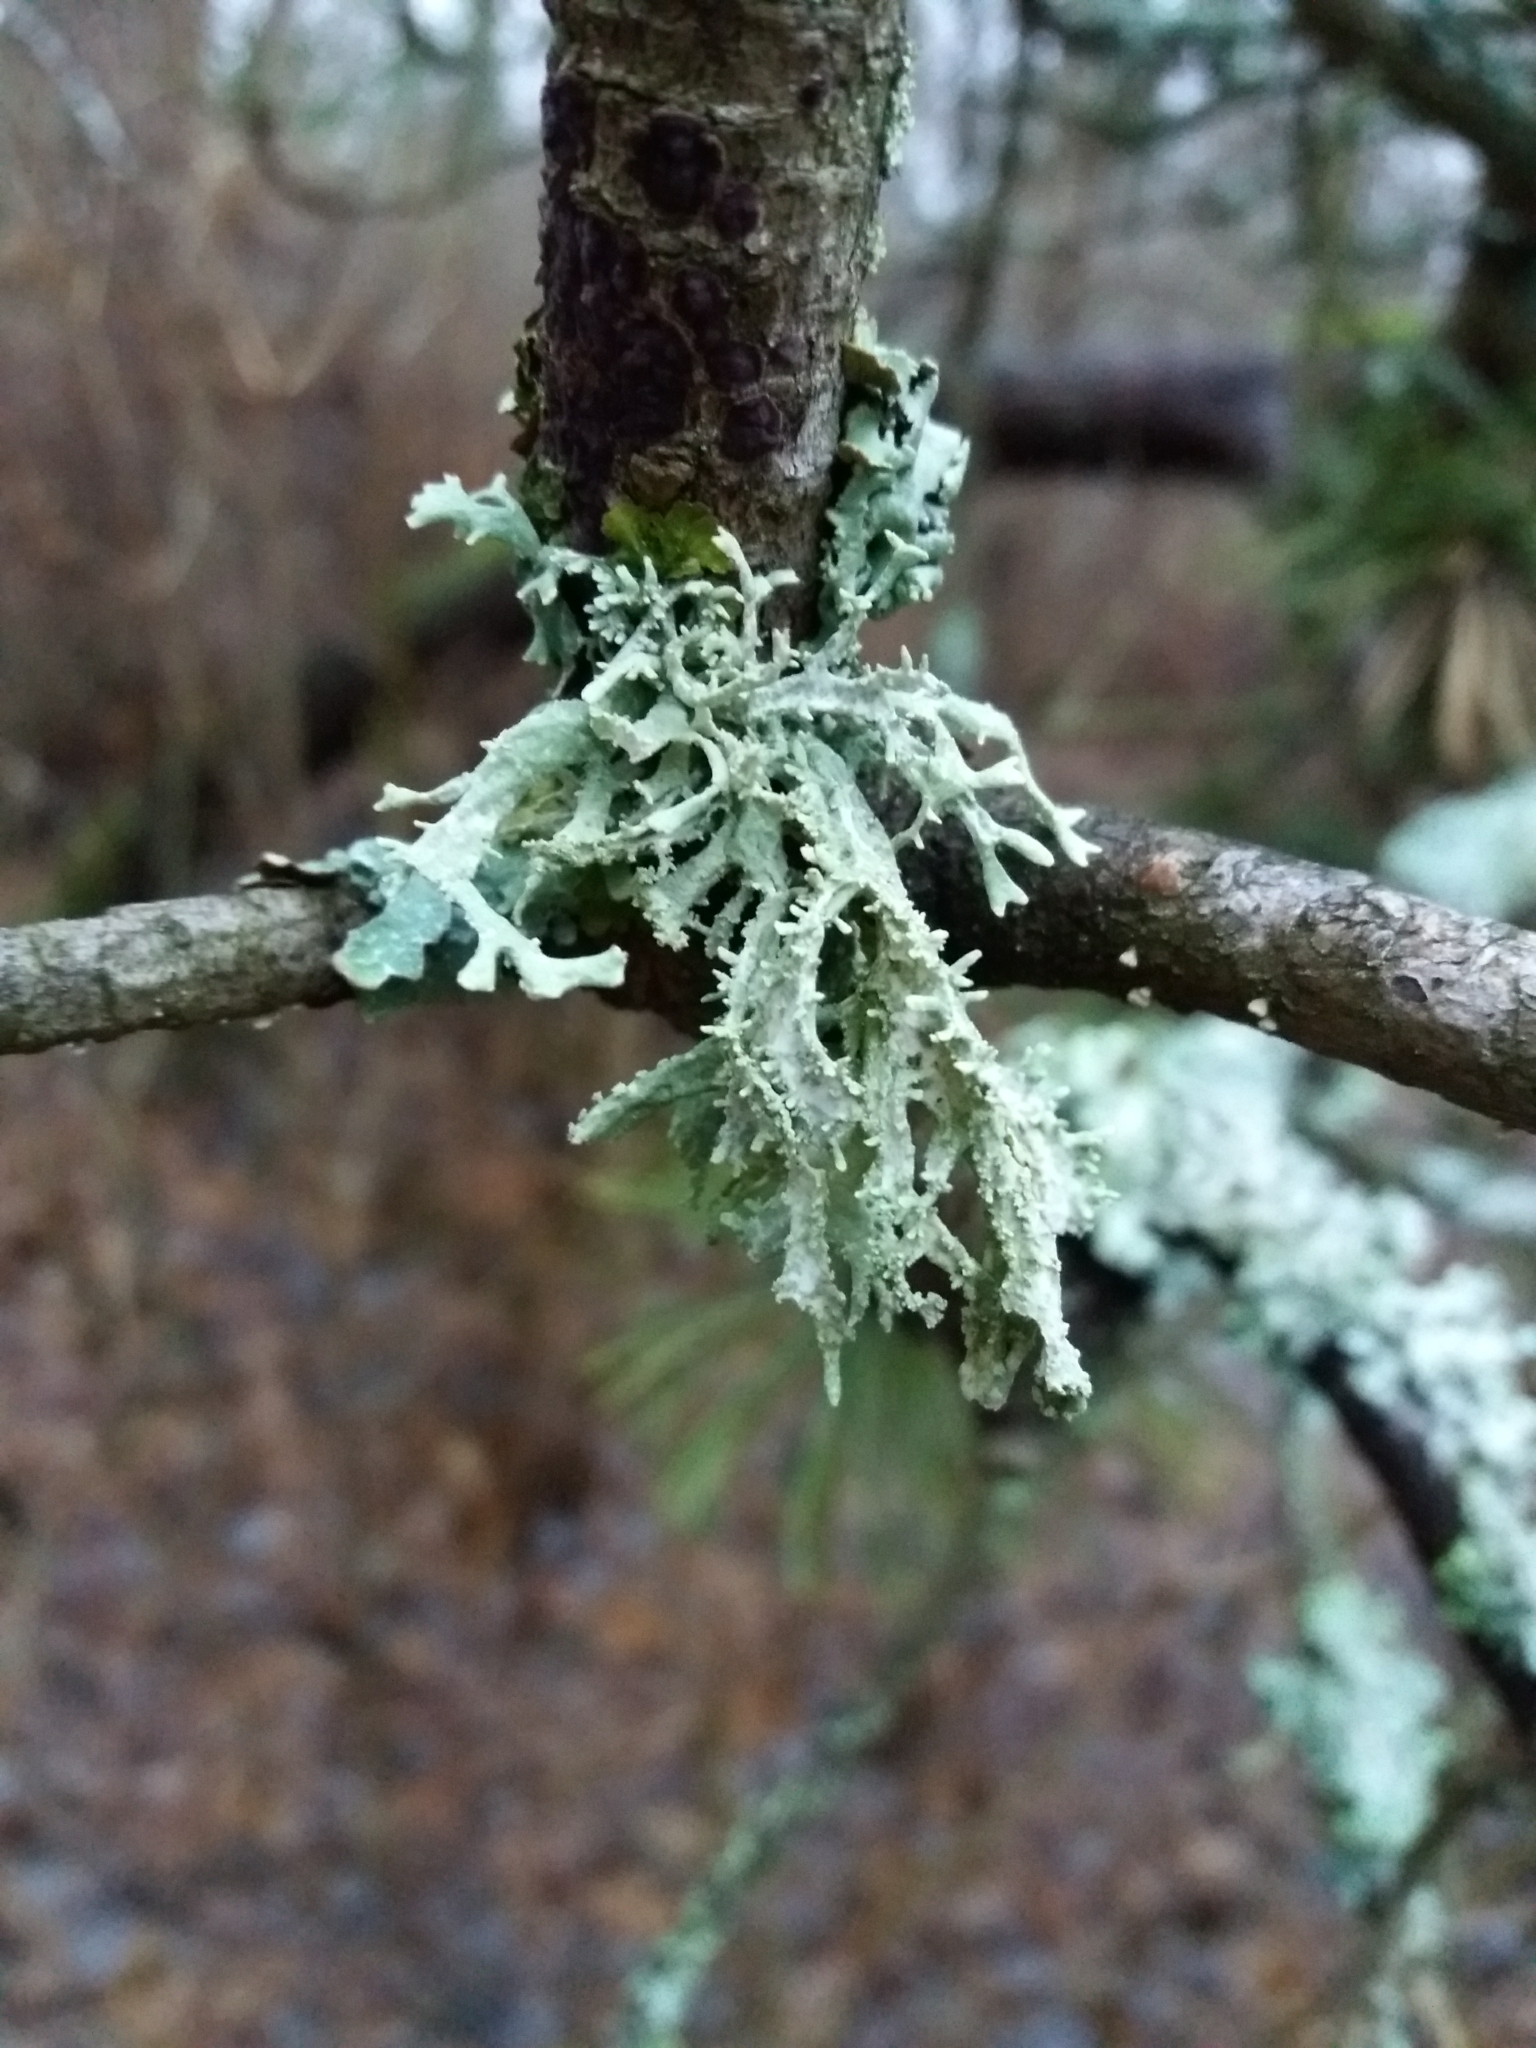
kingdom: Fungi
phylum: Ascomycota
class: Lecanoromycetes
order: Lecanorales
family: Parmeliaceae
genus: Evernia
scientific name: Evernia prunastri
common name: Oak moss
